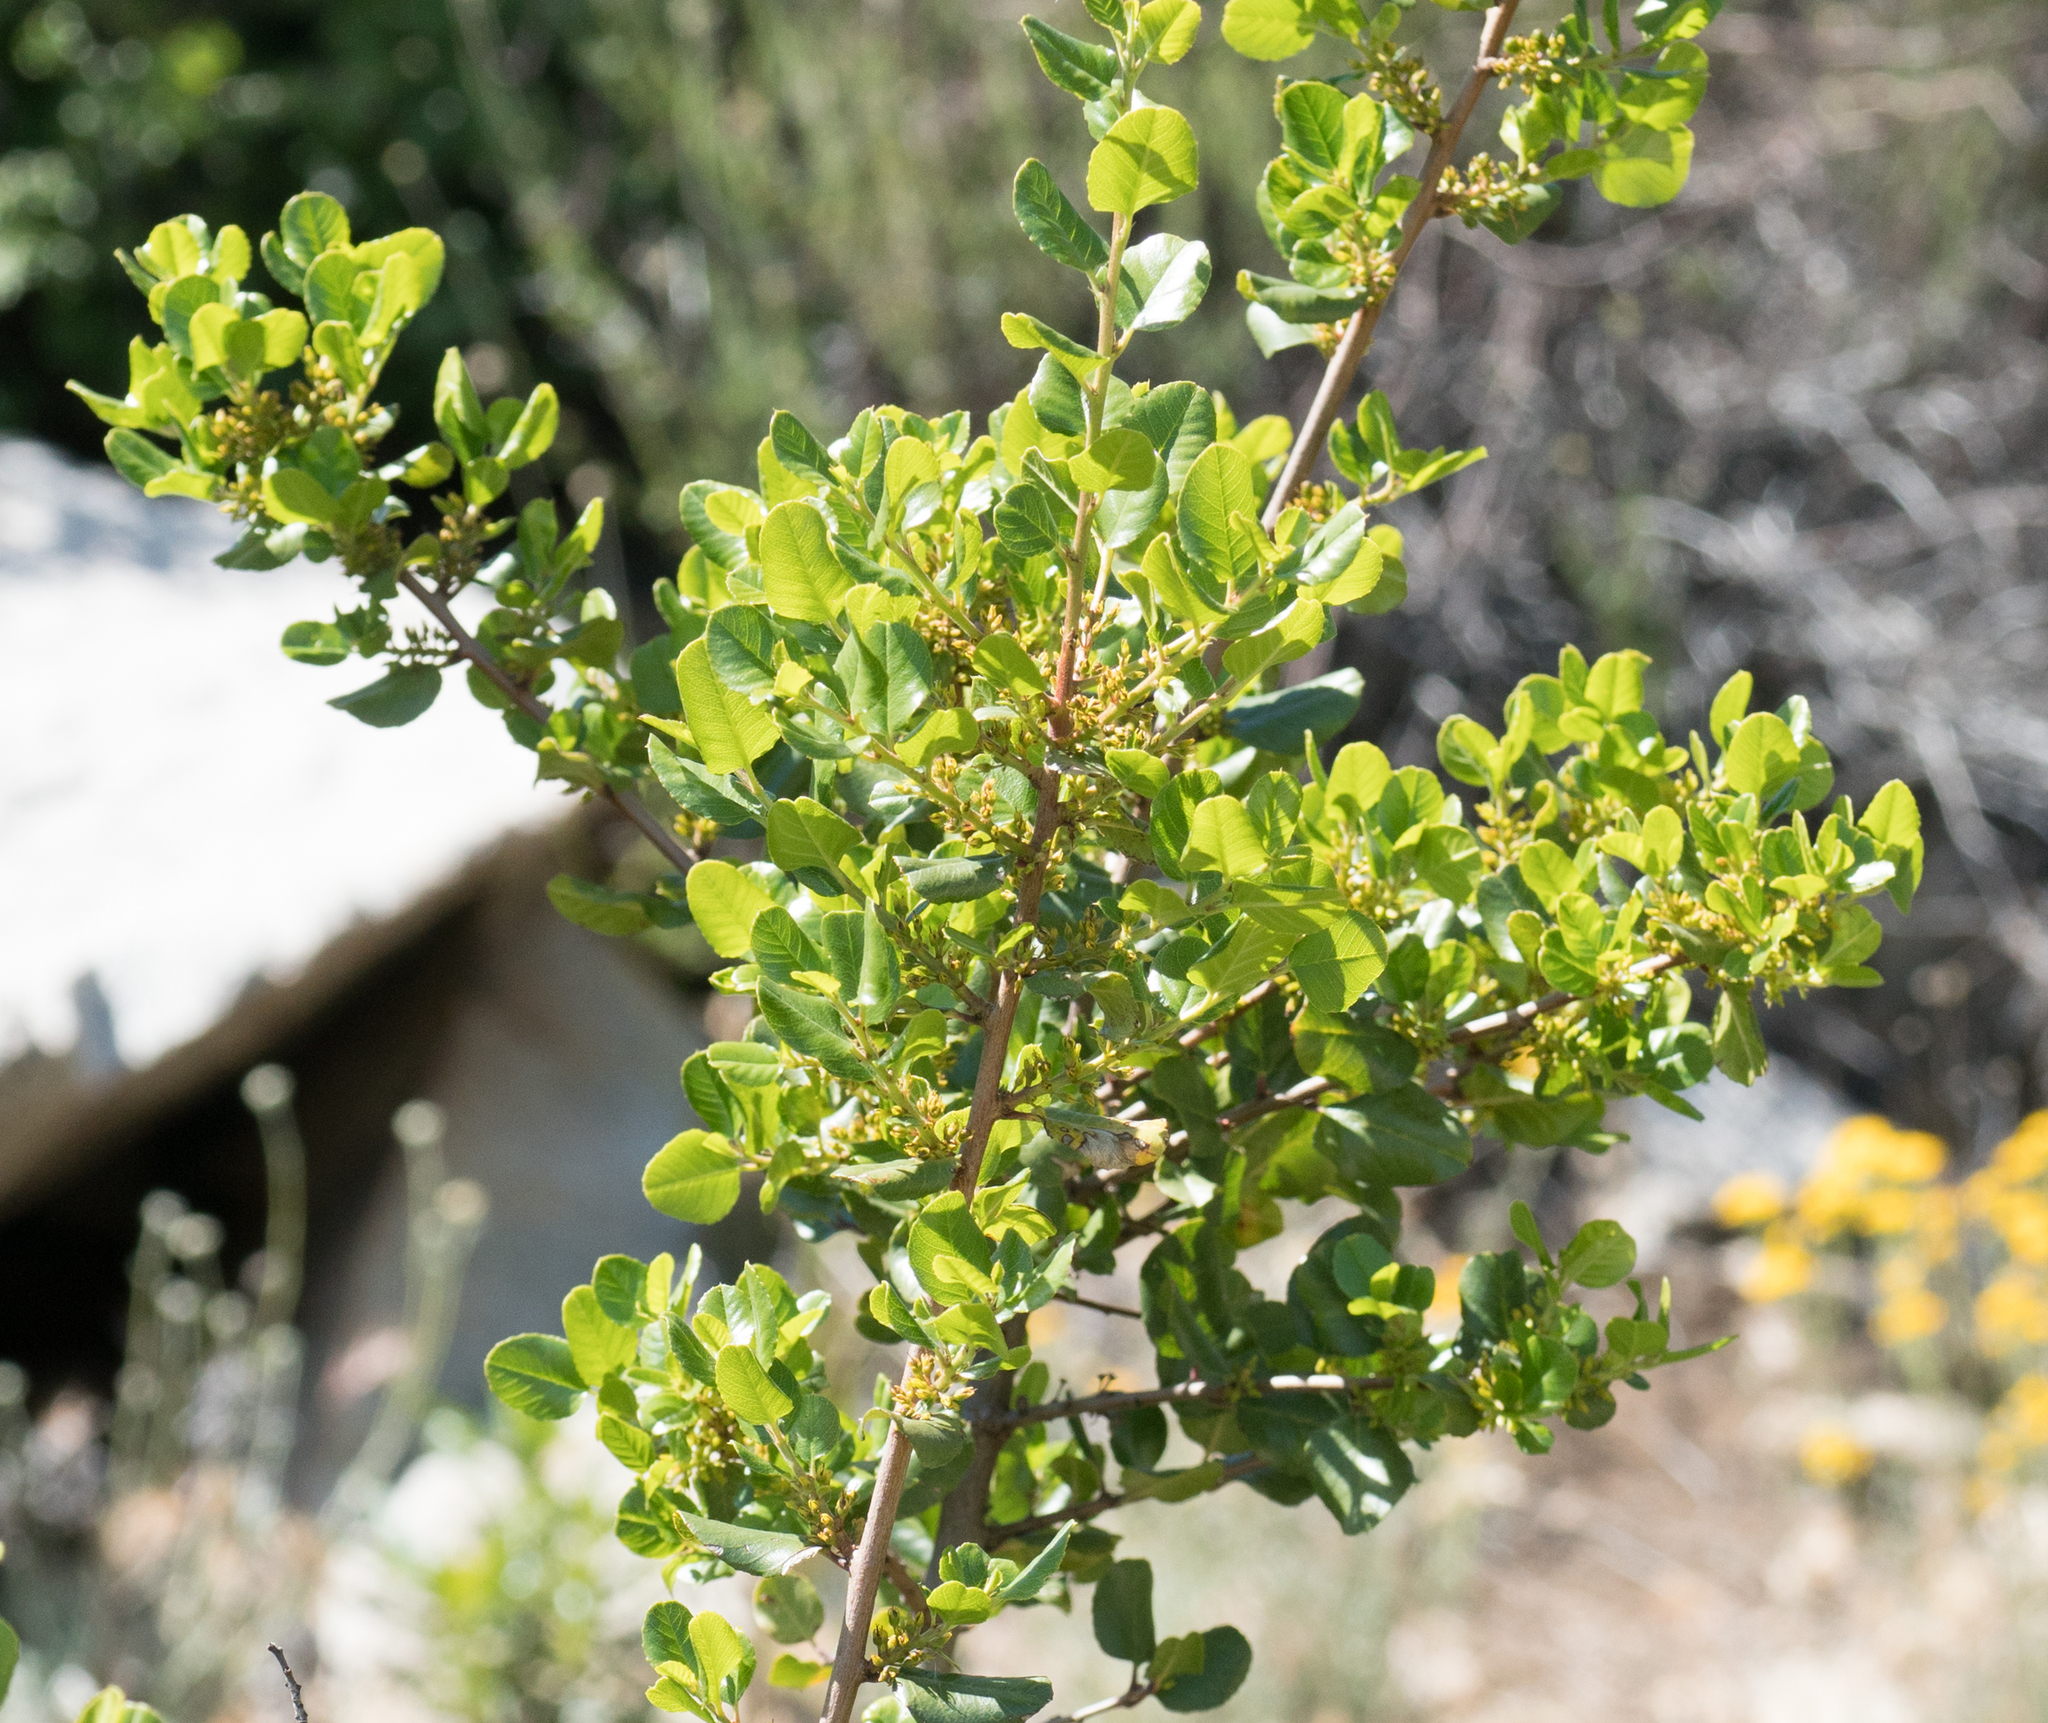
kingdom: Plantae
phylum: Tracheophyta
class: Magnoliopsida
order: Rosales
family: Rhamnaceae
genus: Endotropis
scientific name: Endotropis crocea
